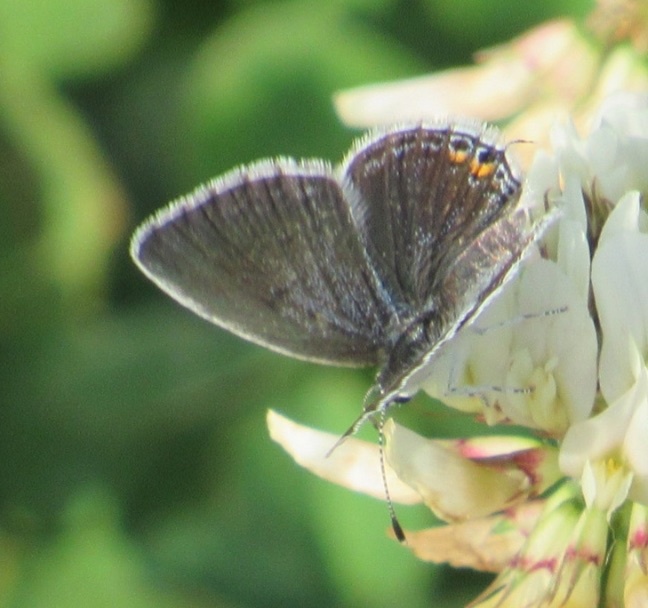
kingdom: Animalia
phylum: Arthropoda
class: Insecta
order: Lepidoptera
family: Lycaenidae
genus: Elkalyce
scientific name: Elkalyce comyntas
